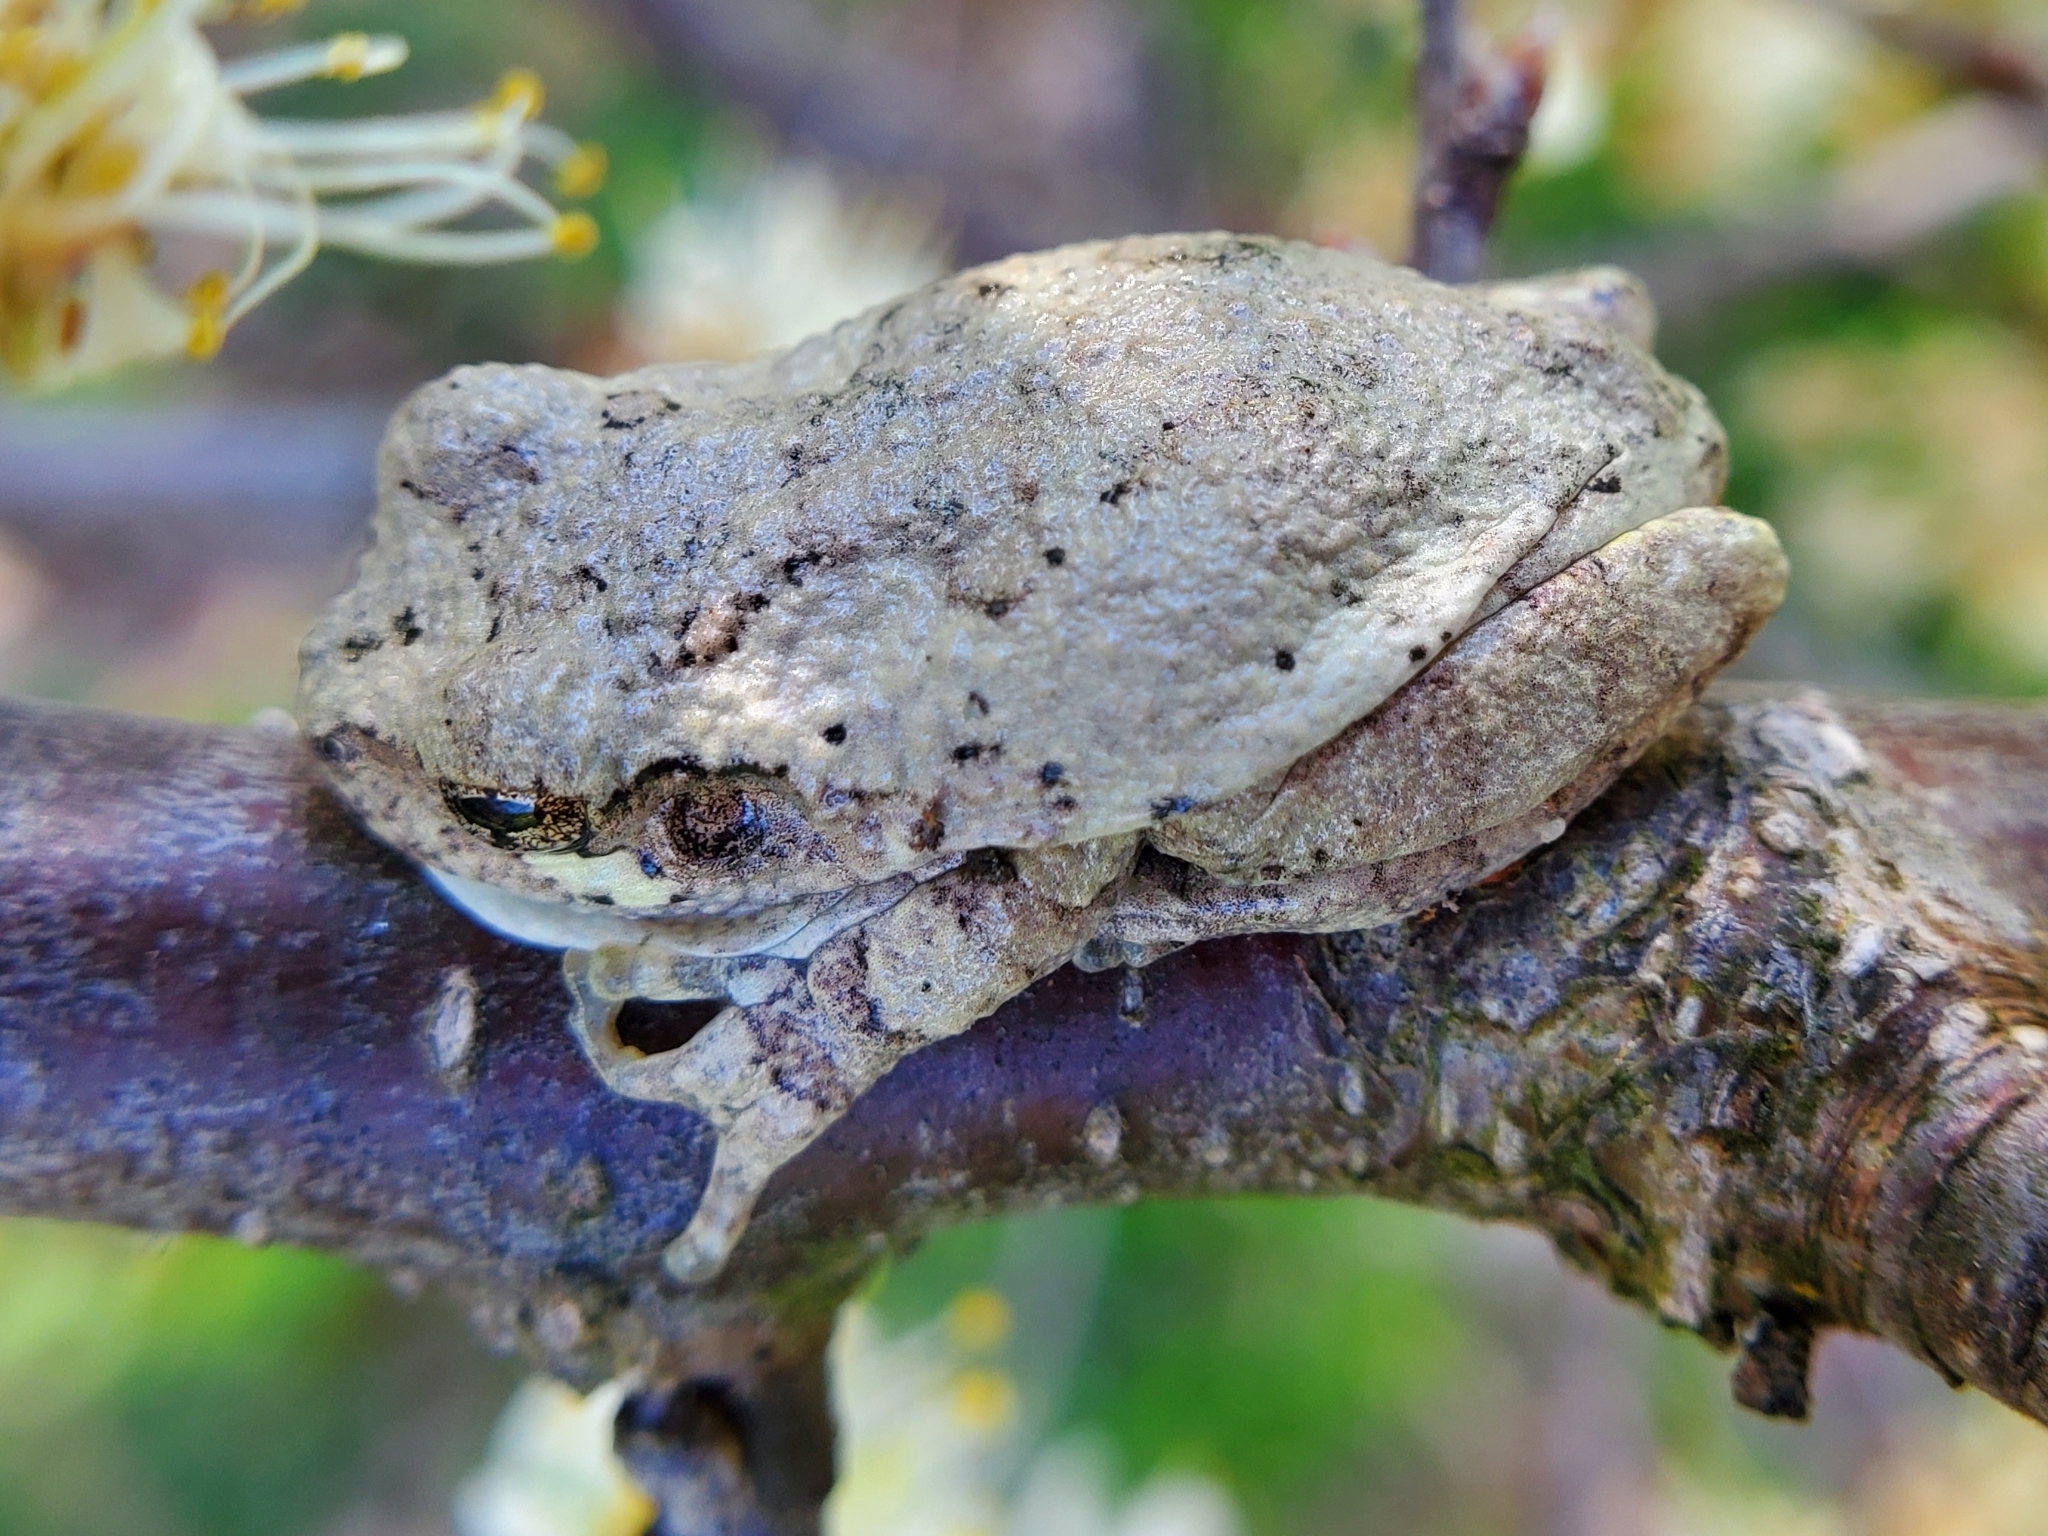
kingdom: Animalia
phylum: Chordata
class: Amphibia
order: Anura
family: Hylidae
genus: Dryophytes
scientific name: Dryophytes chrysoscelis
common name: Cope's gray treefrog
